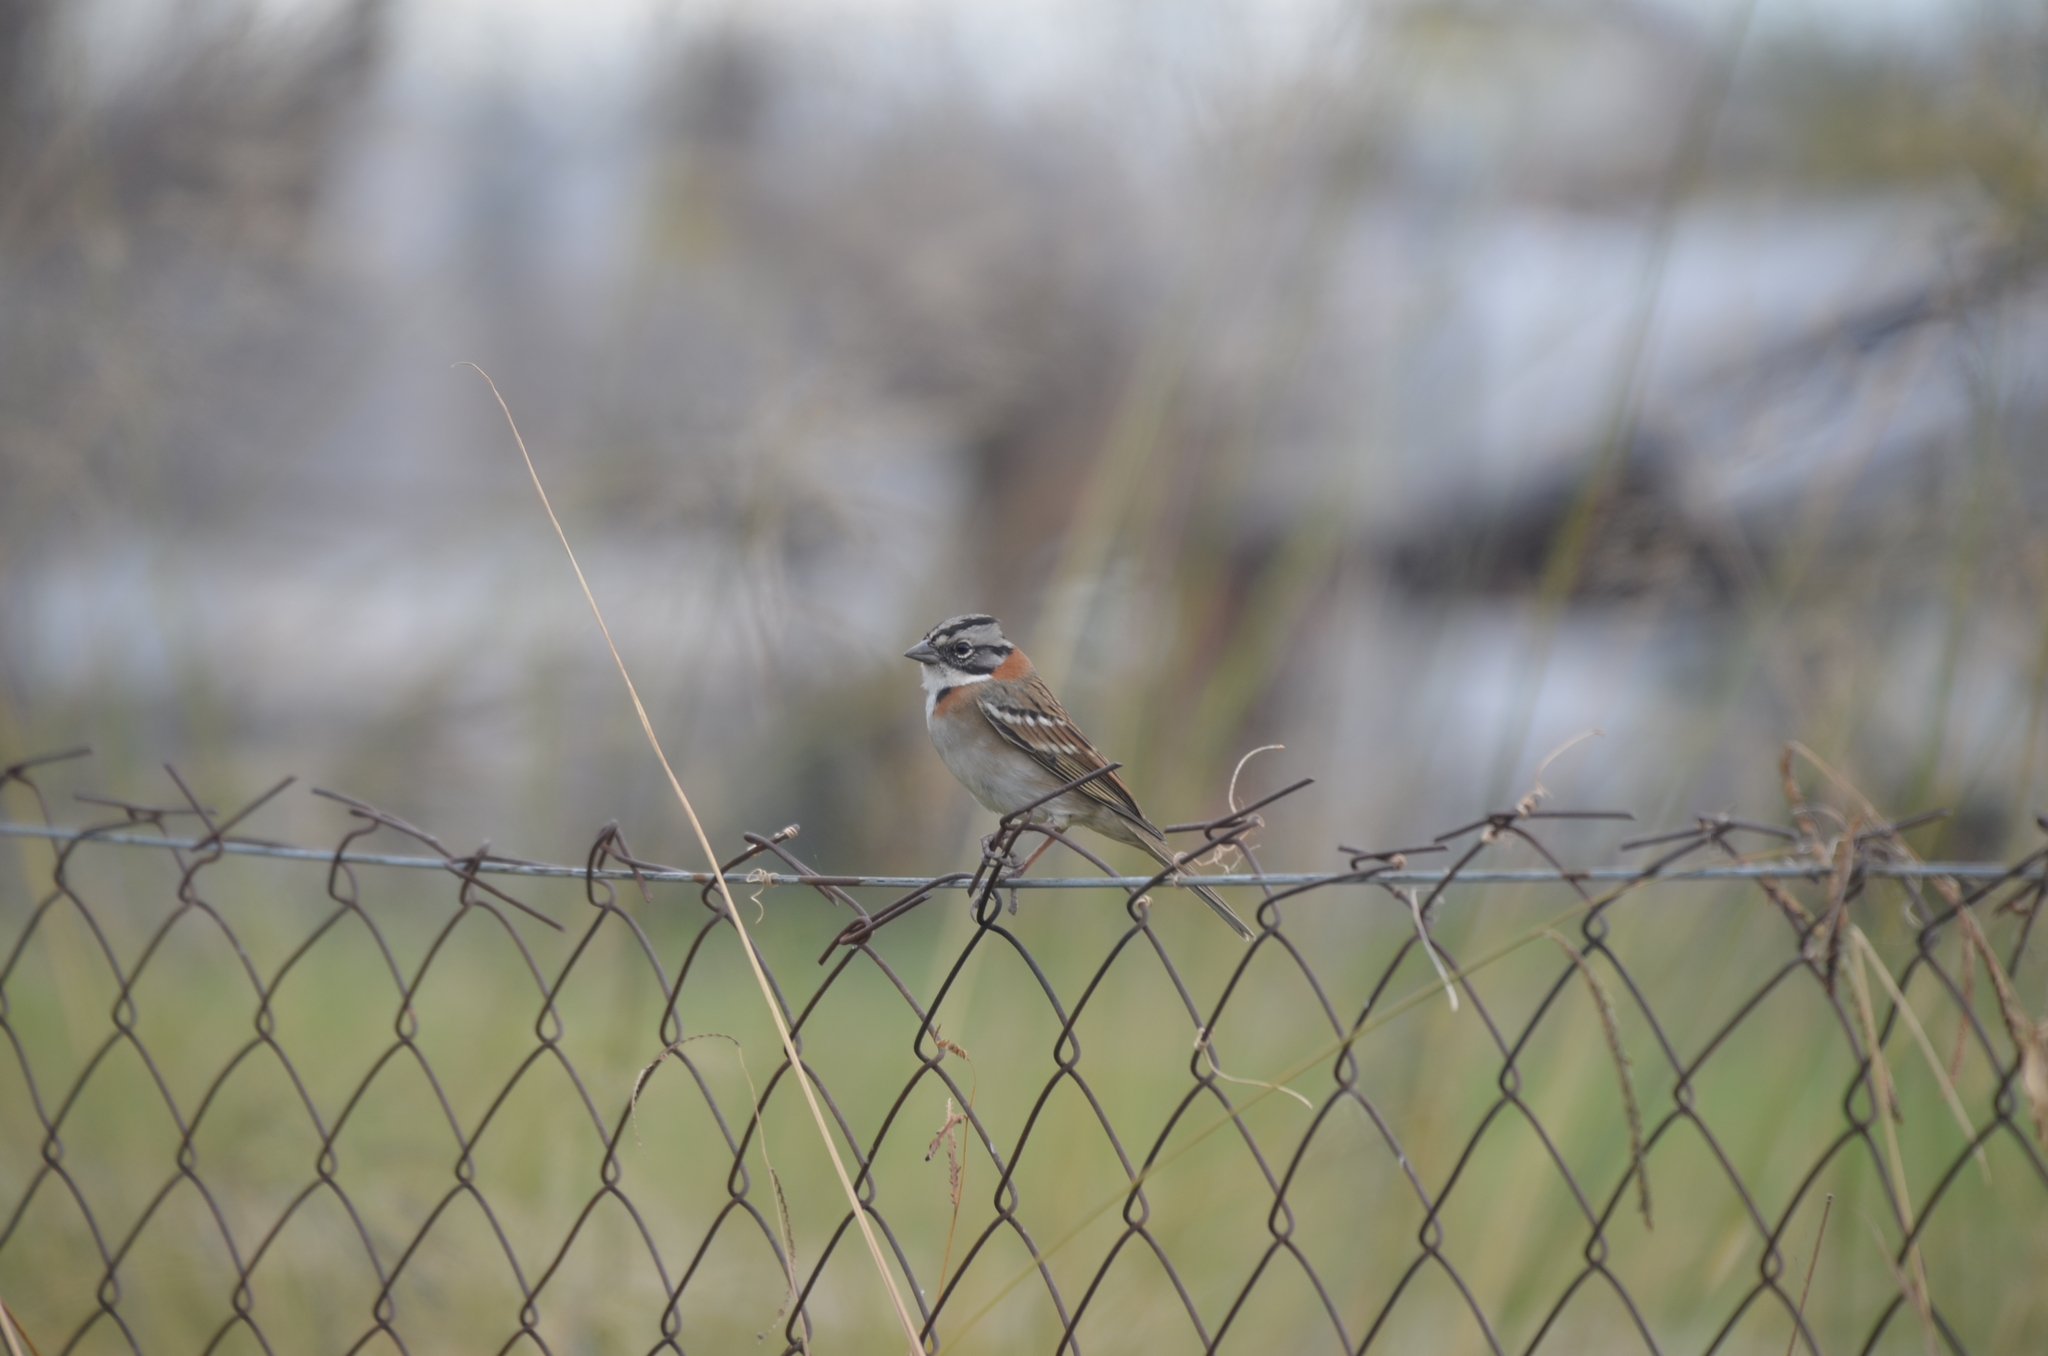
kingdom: Animalia
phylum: Chordata
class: Aves
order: Passeriformes
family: Passerellidae
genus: Zonotrichia
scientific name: Zonotrichia capensis
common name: Rufous-collared sparrow
